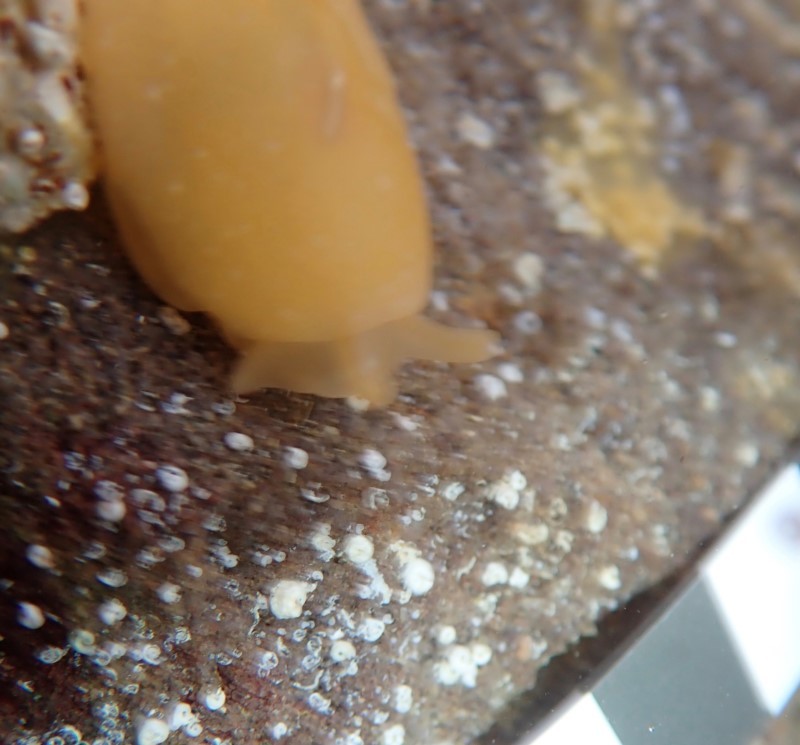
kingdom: Animalia
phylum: Mollusca
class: Gastropoda
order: Pleurobranchida
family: Pleurobranchidae
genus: Berthellina
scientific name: Berthellina citrina
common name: Lemon pleurobranch
